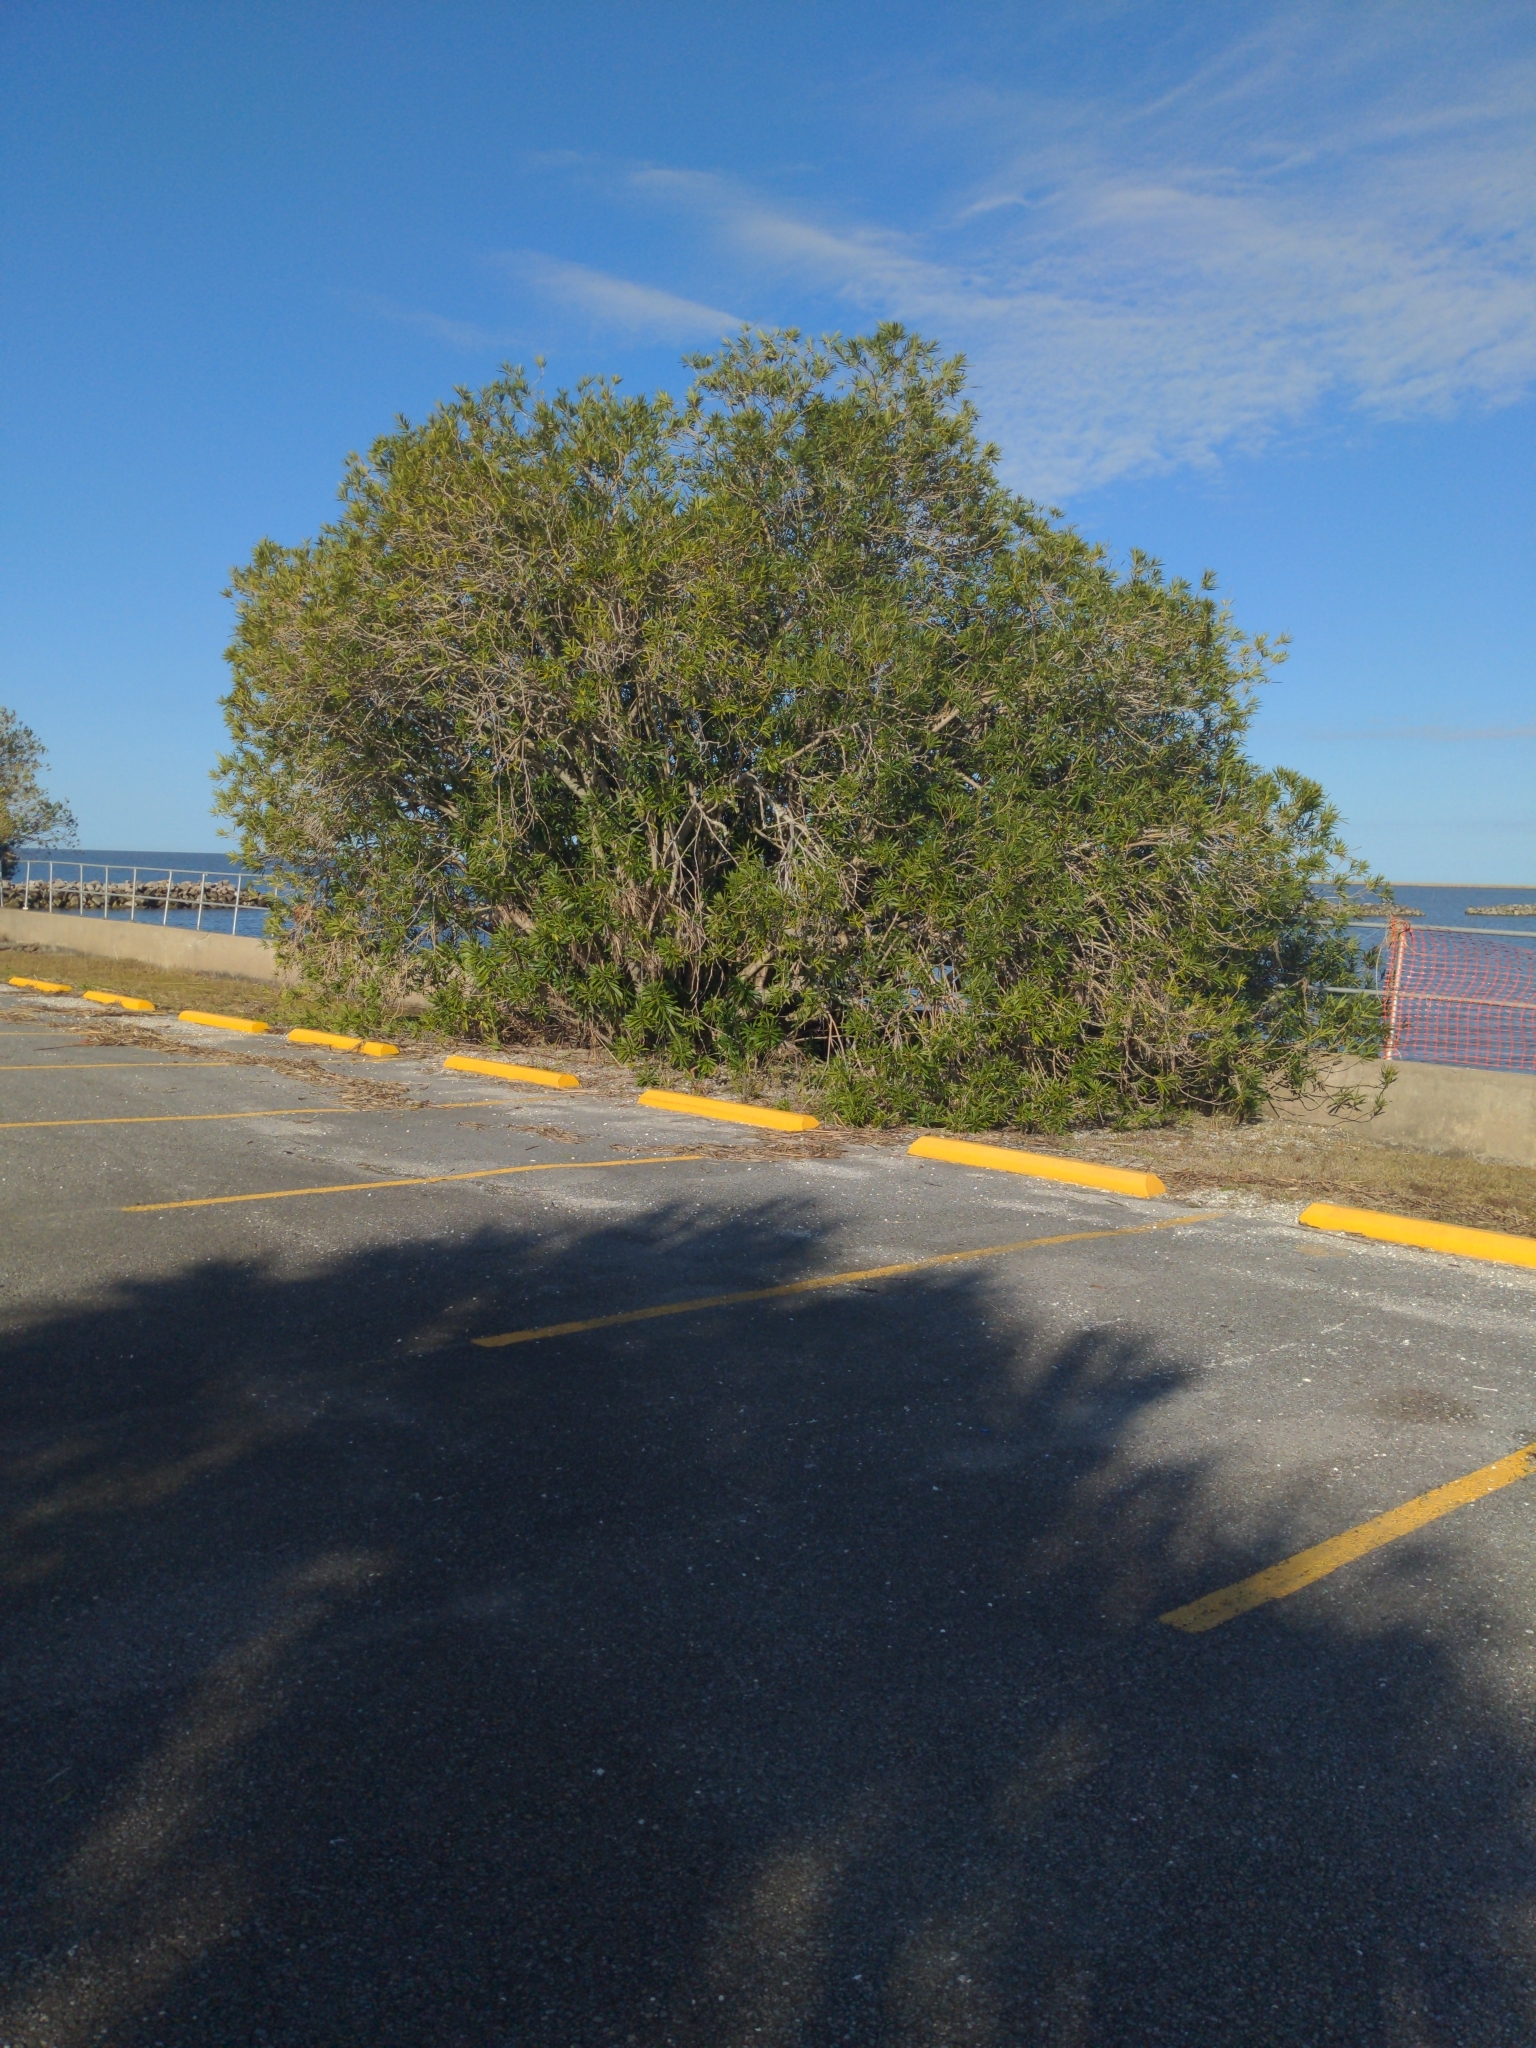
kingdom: Plantae
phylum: Tracheophyta
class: Magnoliopsida
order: Gentianales
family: Apocynaceae
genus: Nerium
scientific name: Nerium oleander
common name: Oleander
